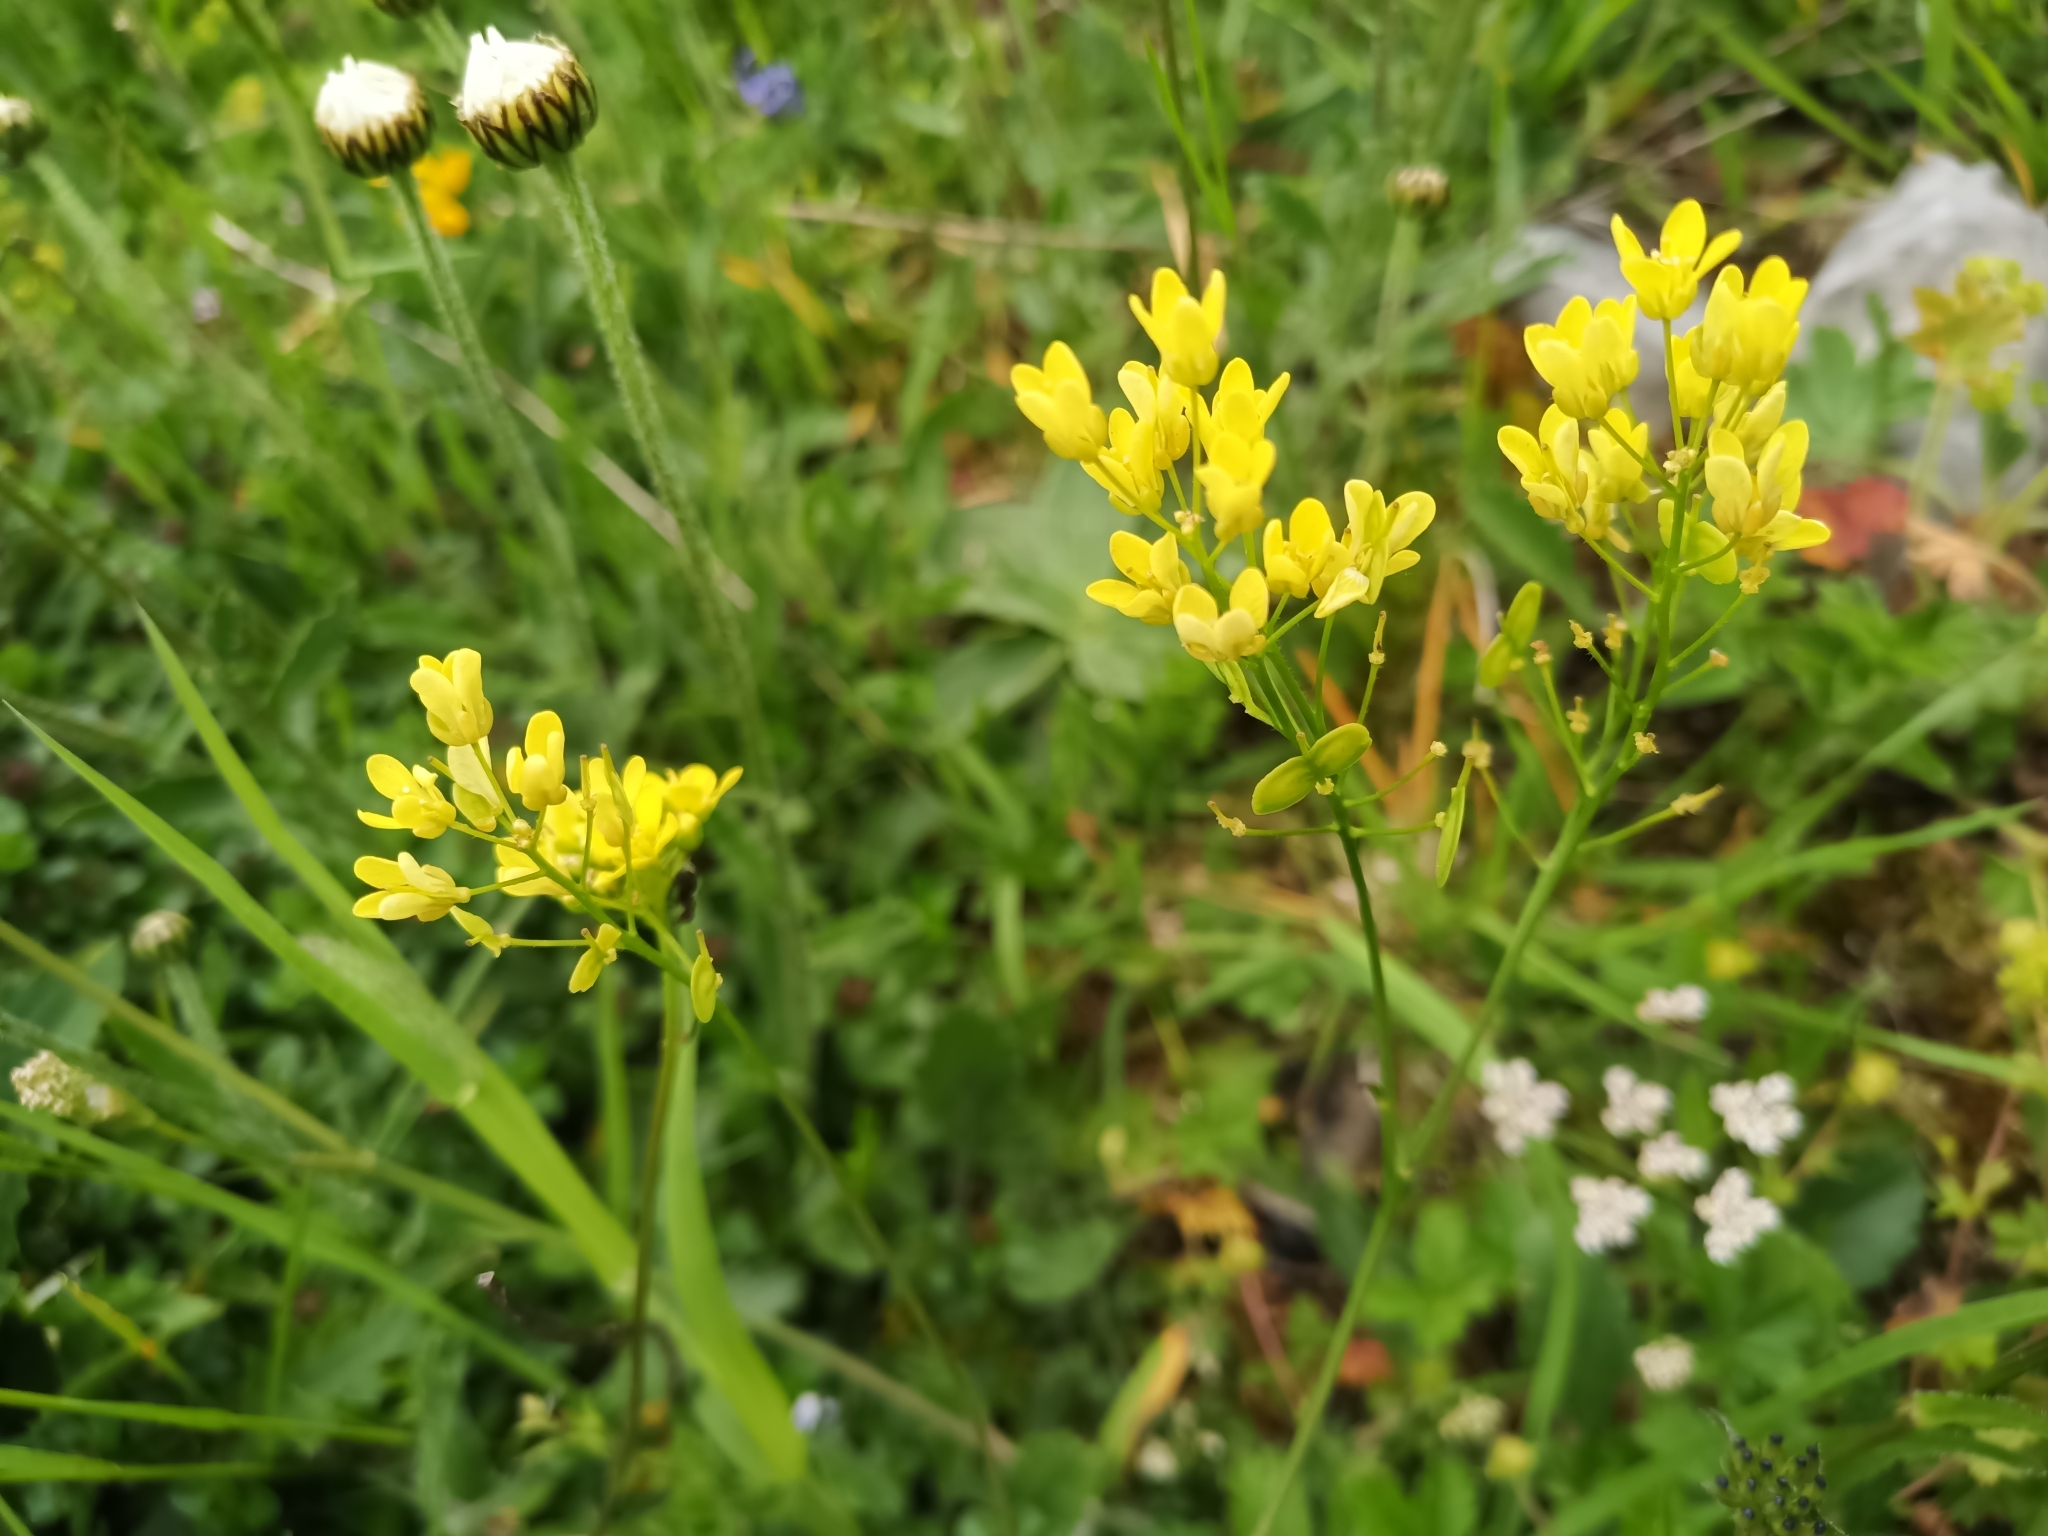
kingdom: Plantae
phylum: Tracheophyta
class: Magnoliopsida
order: Brassicales
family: Brassicaceae
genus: Biscutella
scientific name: Biscutella laevigata
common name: Buckler mustard
